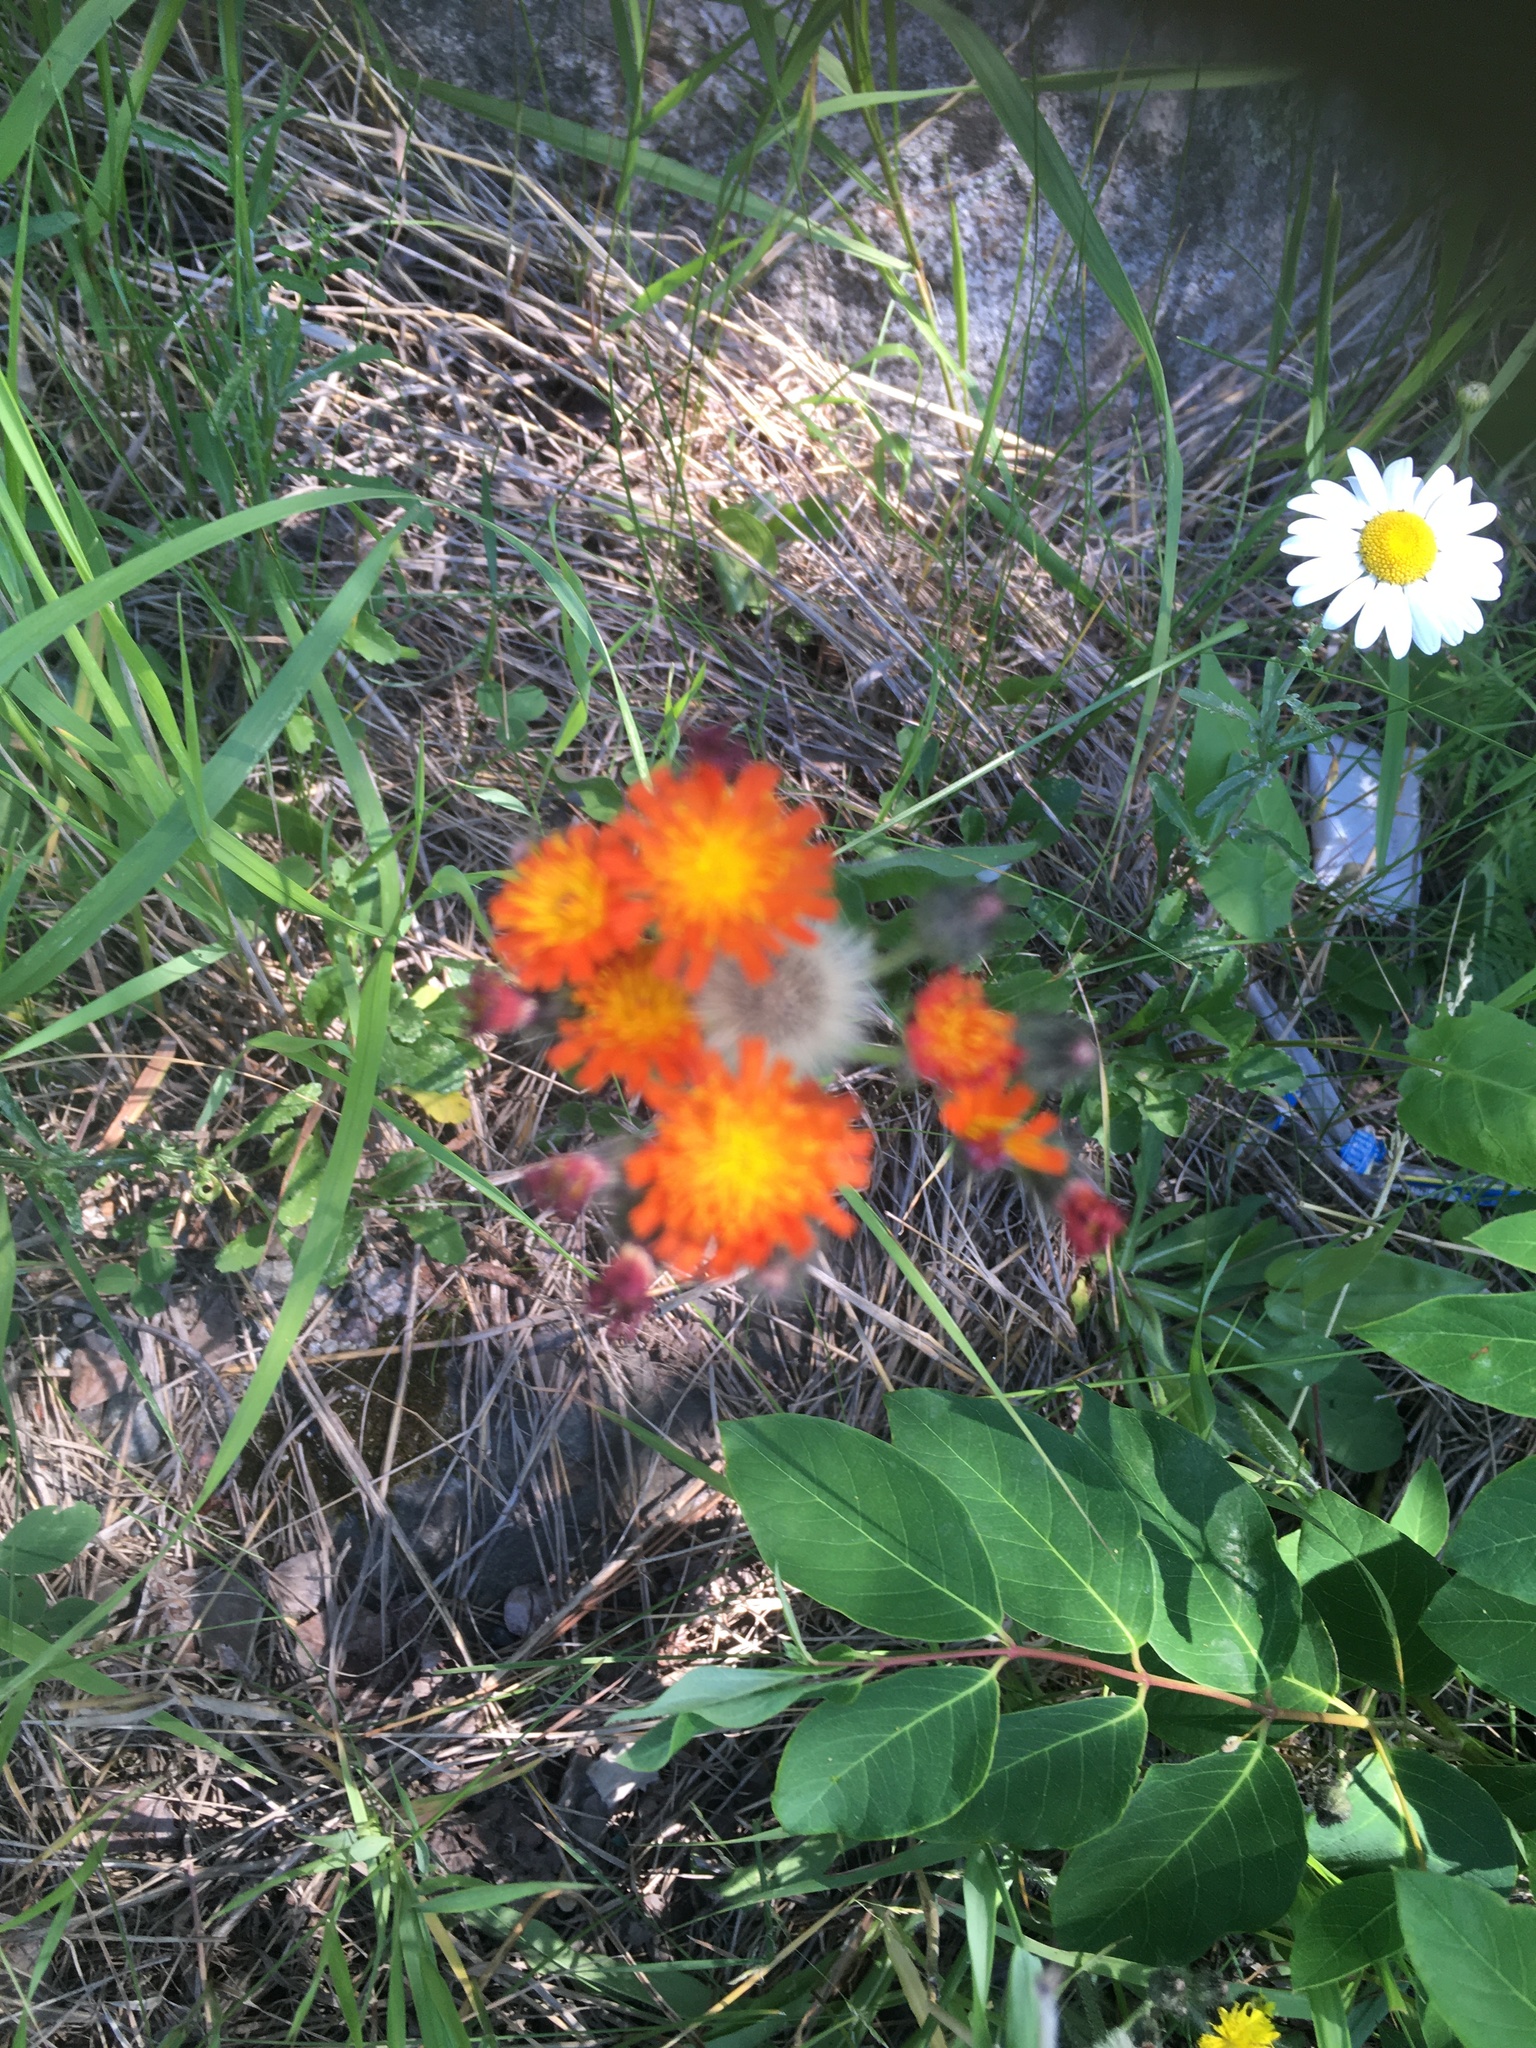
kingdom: Plantae
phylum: Tracheophyta
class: Magnoliopsida
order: Asterales
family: Asteraceae
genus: Pilosella
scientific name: Pilosella aurantiaca
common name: Fox-and-cubs
